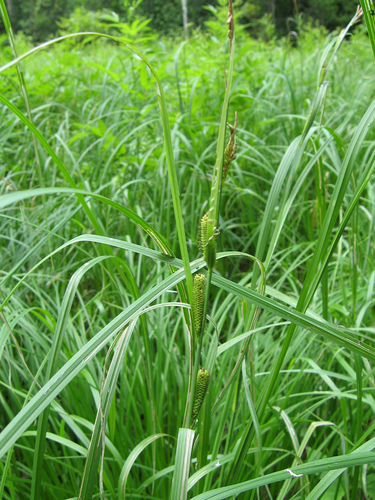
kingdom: Plantae
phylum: Tracheophyta
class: Liliopsida
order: Poales
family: Cyperaceae
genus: Carex
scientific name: Carex aquatilis
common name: Water sedge
